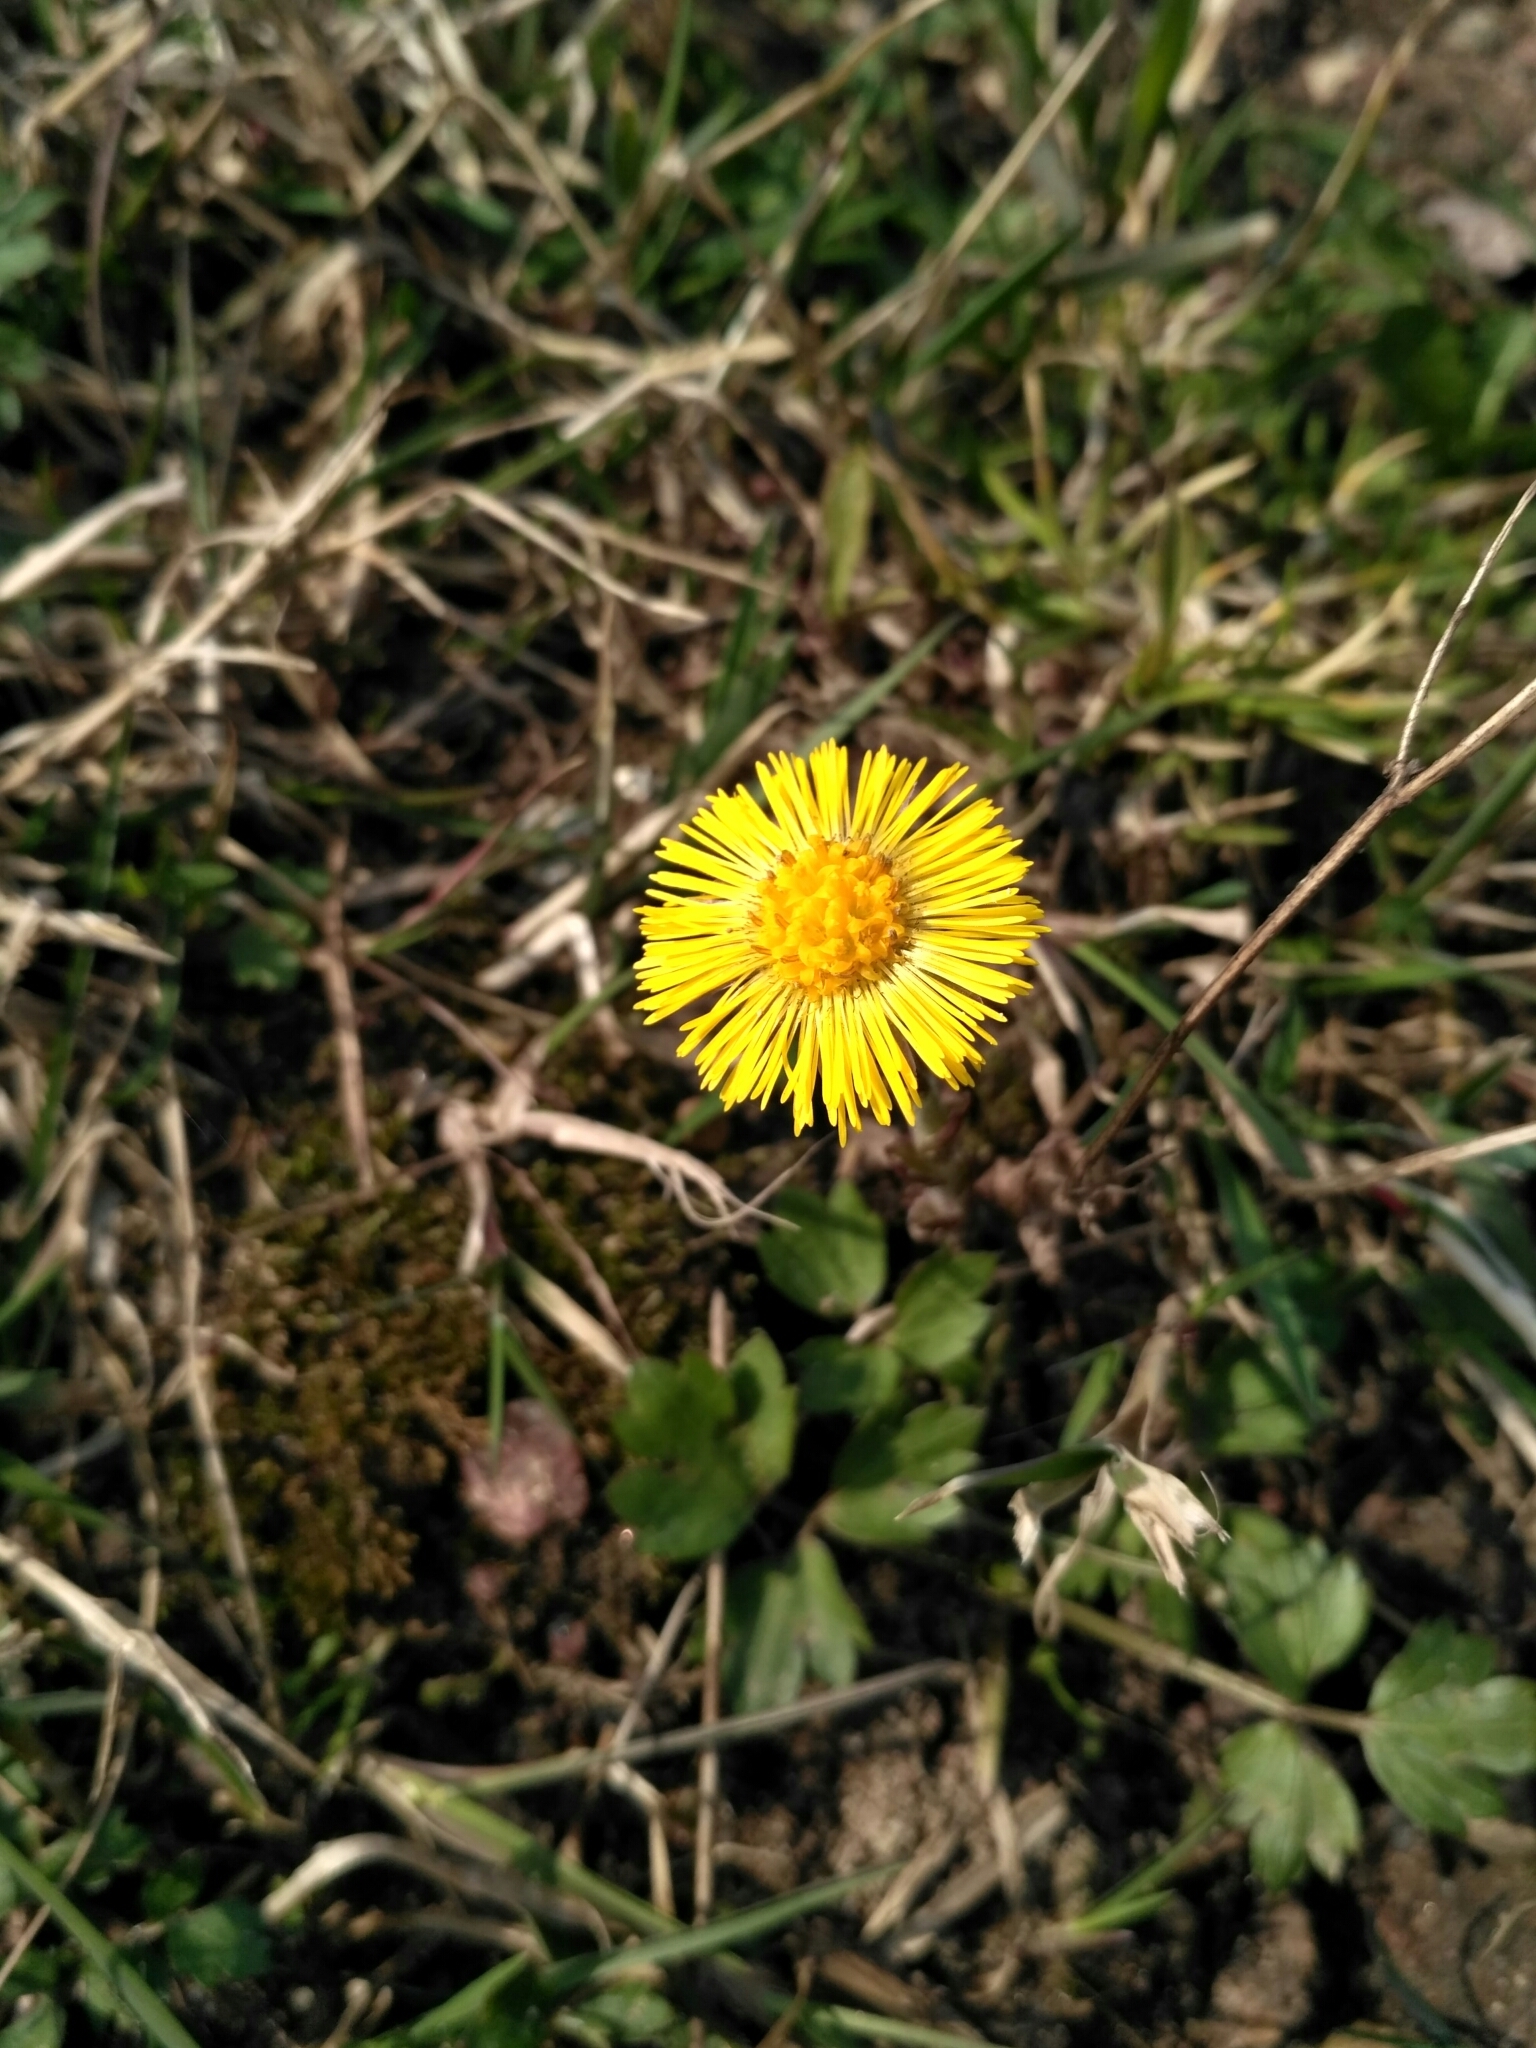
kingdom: Plantae
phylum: Tracheophyta
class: Magnoliopsida
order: Asterales
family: Asteraceae
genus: Tussilago
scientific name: Tussilago farfara
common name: Coltsfoot
